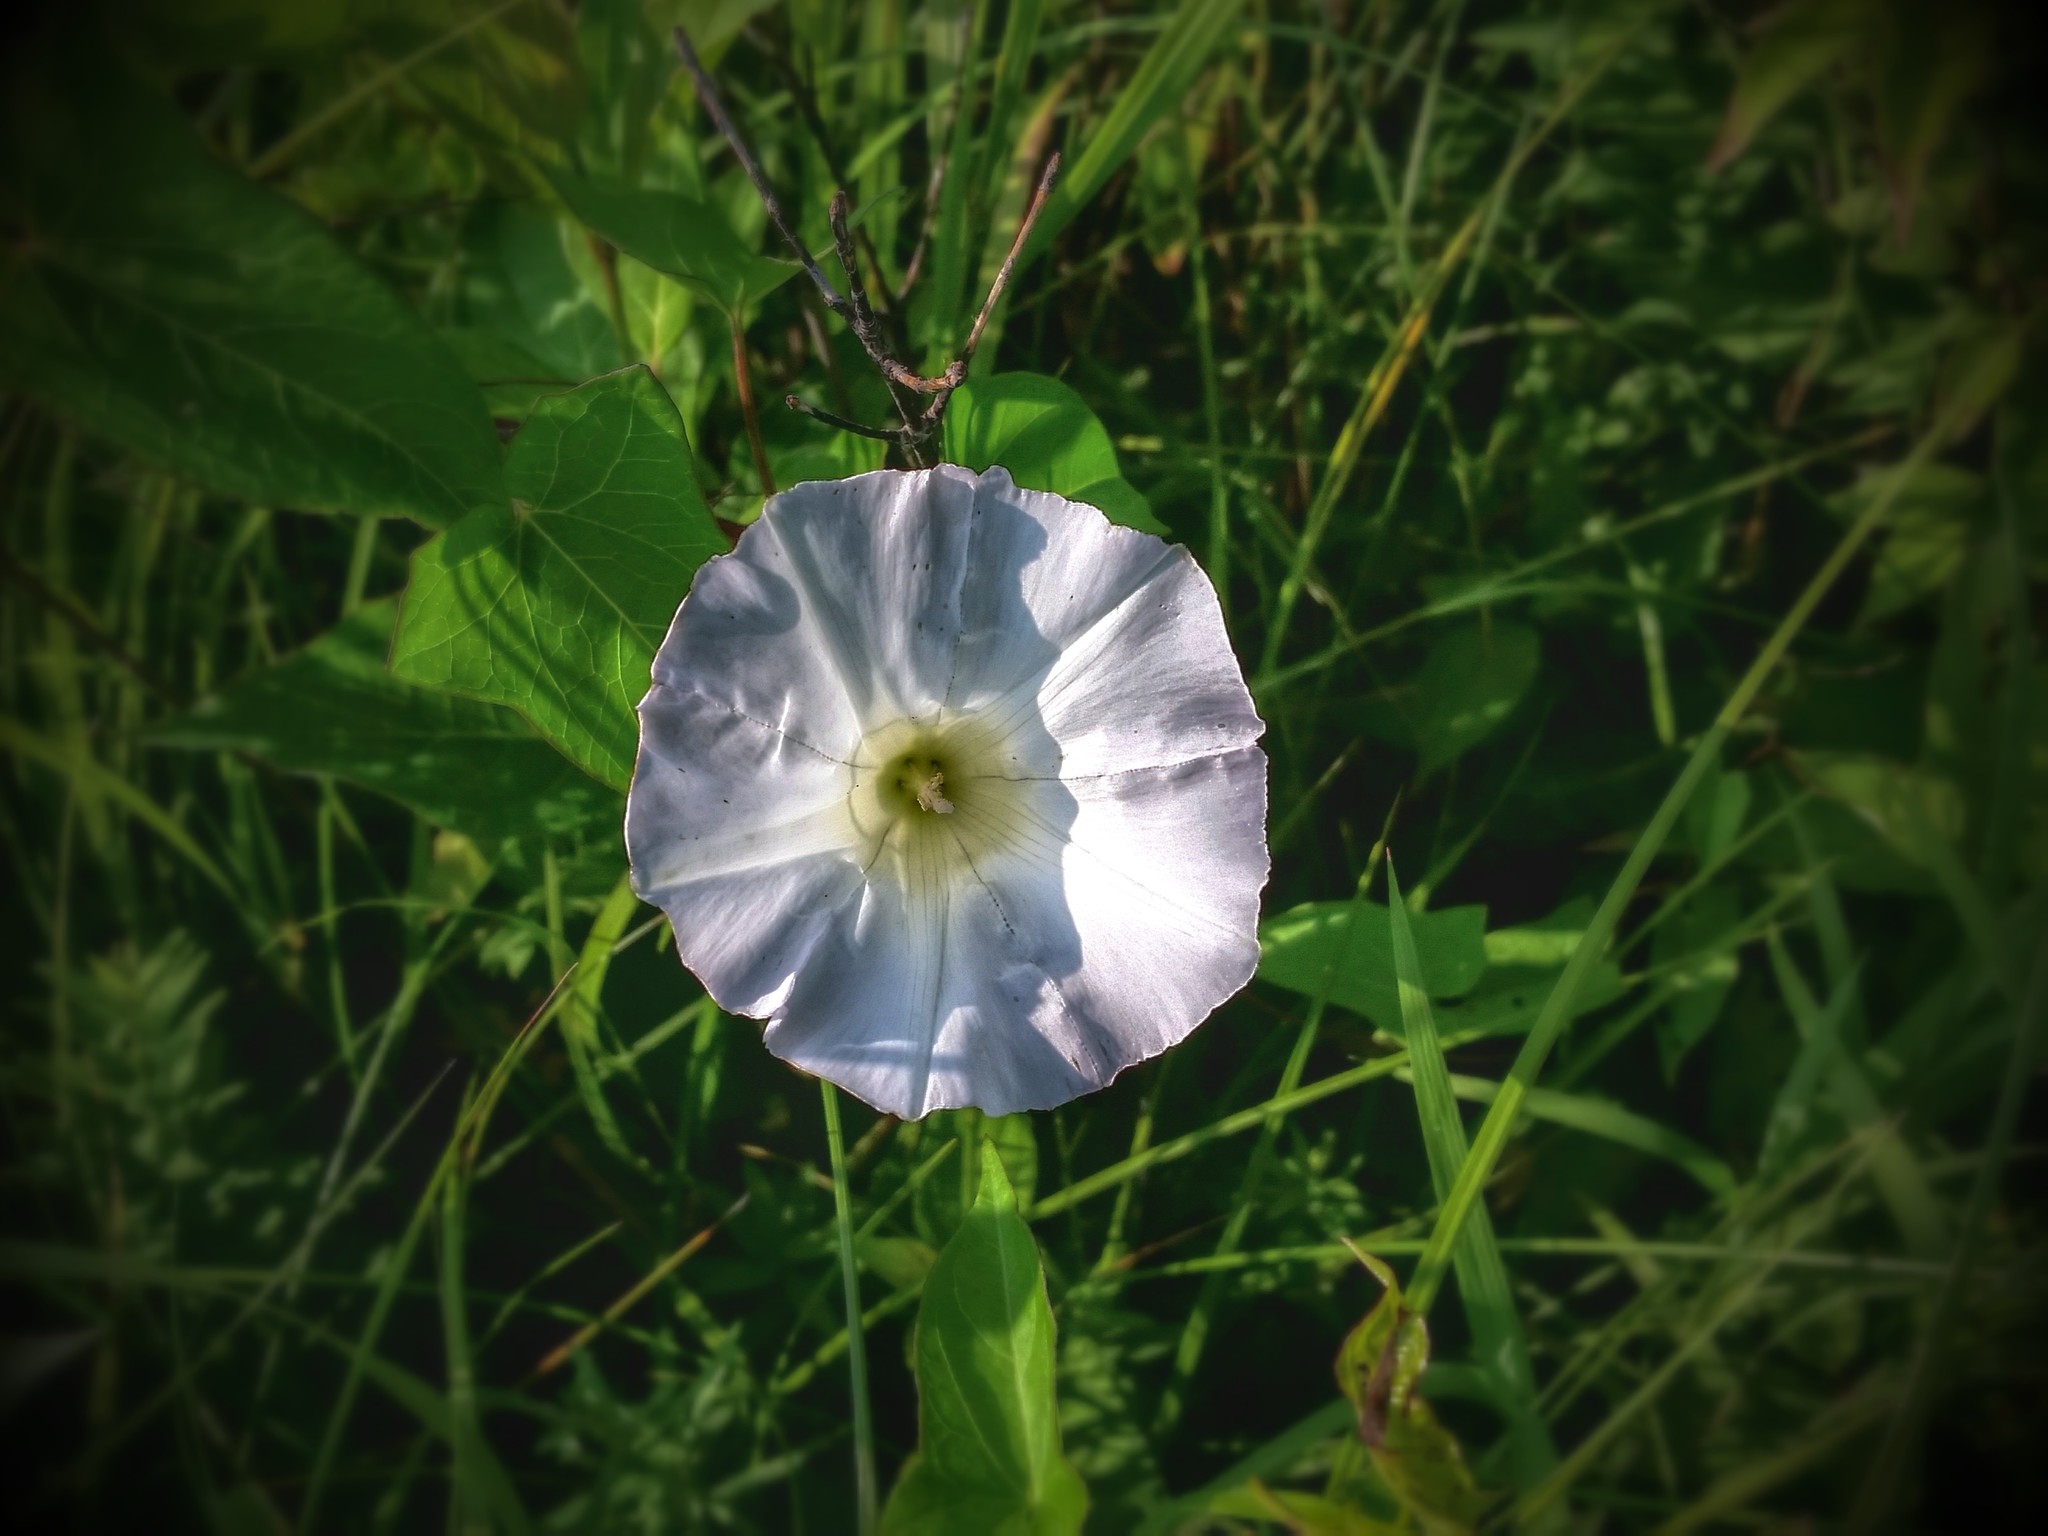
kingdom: Plantae
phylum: Tracheophyta
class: Magnoliopsida
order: Solanales
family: Convolvulaceae
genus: Calystegia
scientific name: Calystegia sepium
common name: Hedge bindweed
